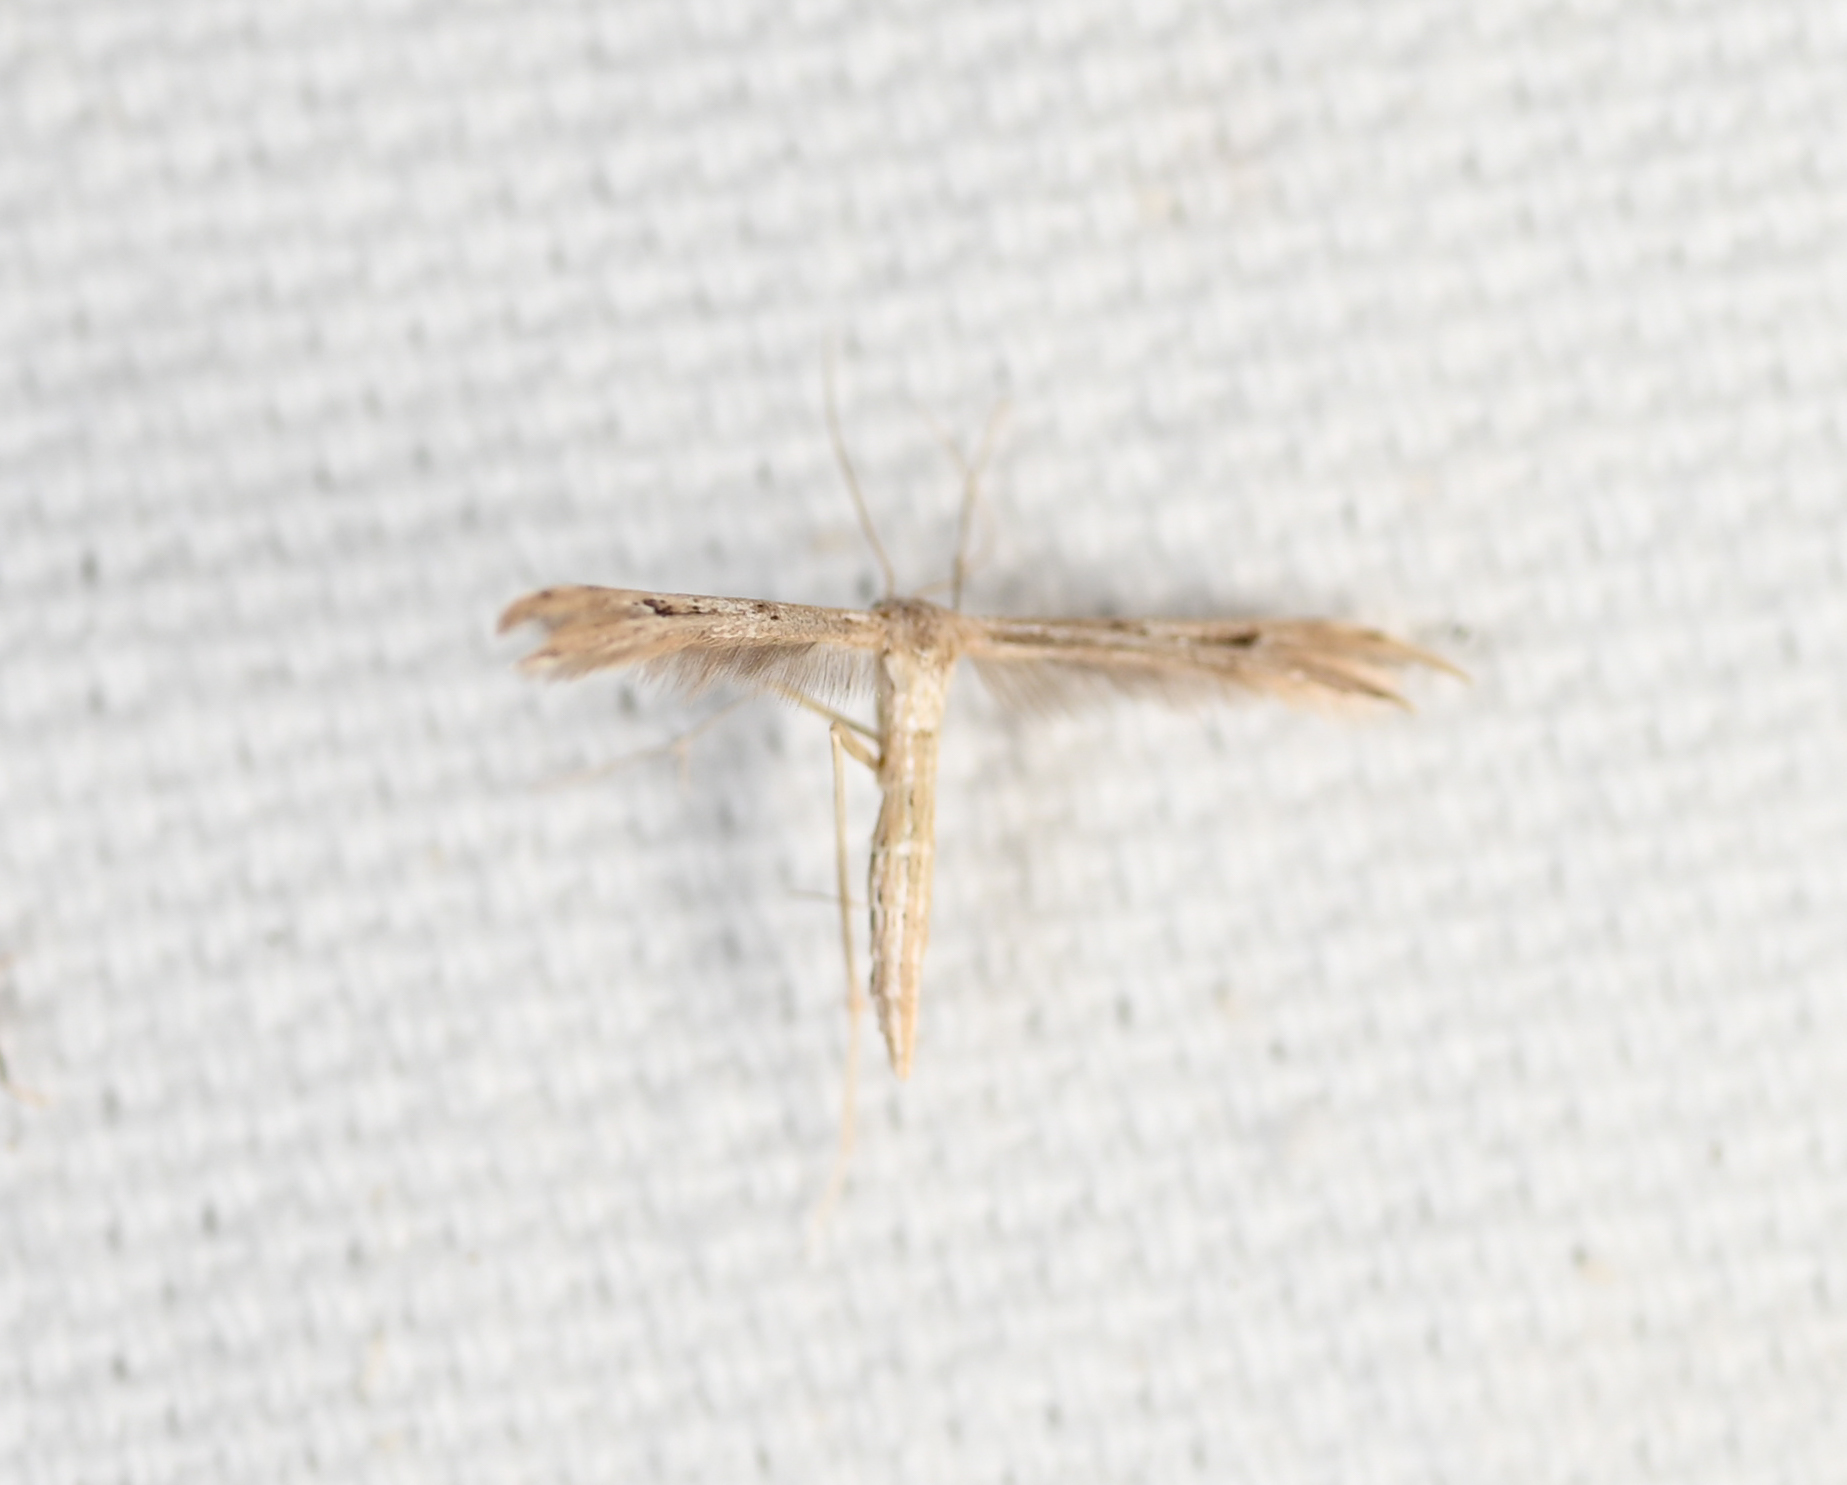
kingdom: Animalia
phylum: Arthropoda
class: Insecta
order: Lepidoptera
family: Pterophoridae
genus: Pselnophorus
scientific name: Pselnophorus belfragei
